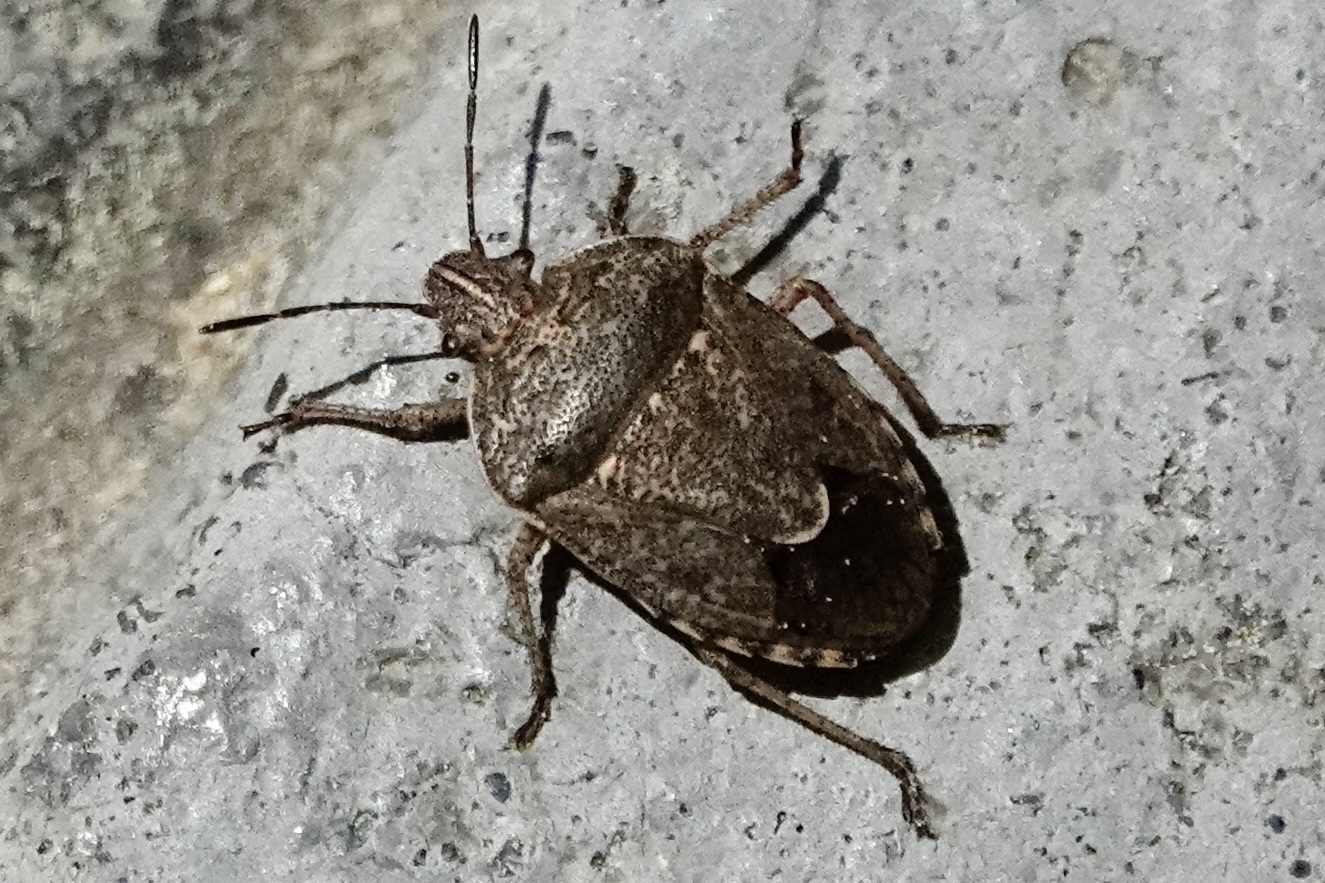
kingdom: Animalia
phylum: Arthropoda
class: Insecta
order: Hemiptera
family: Pentatomidae
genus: Hymenarcys
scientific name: Hymenarcys nervosa
